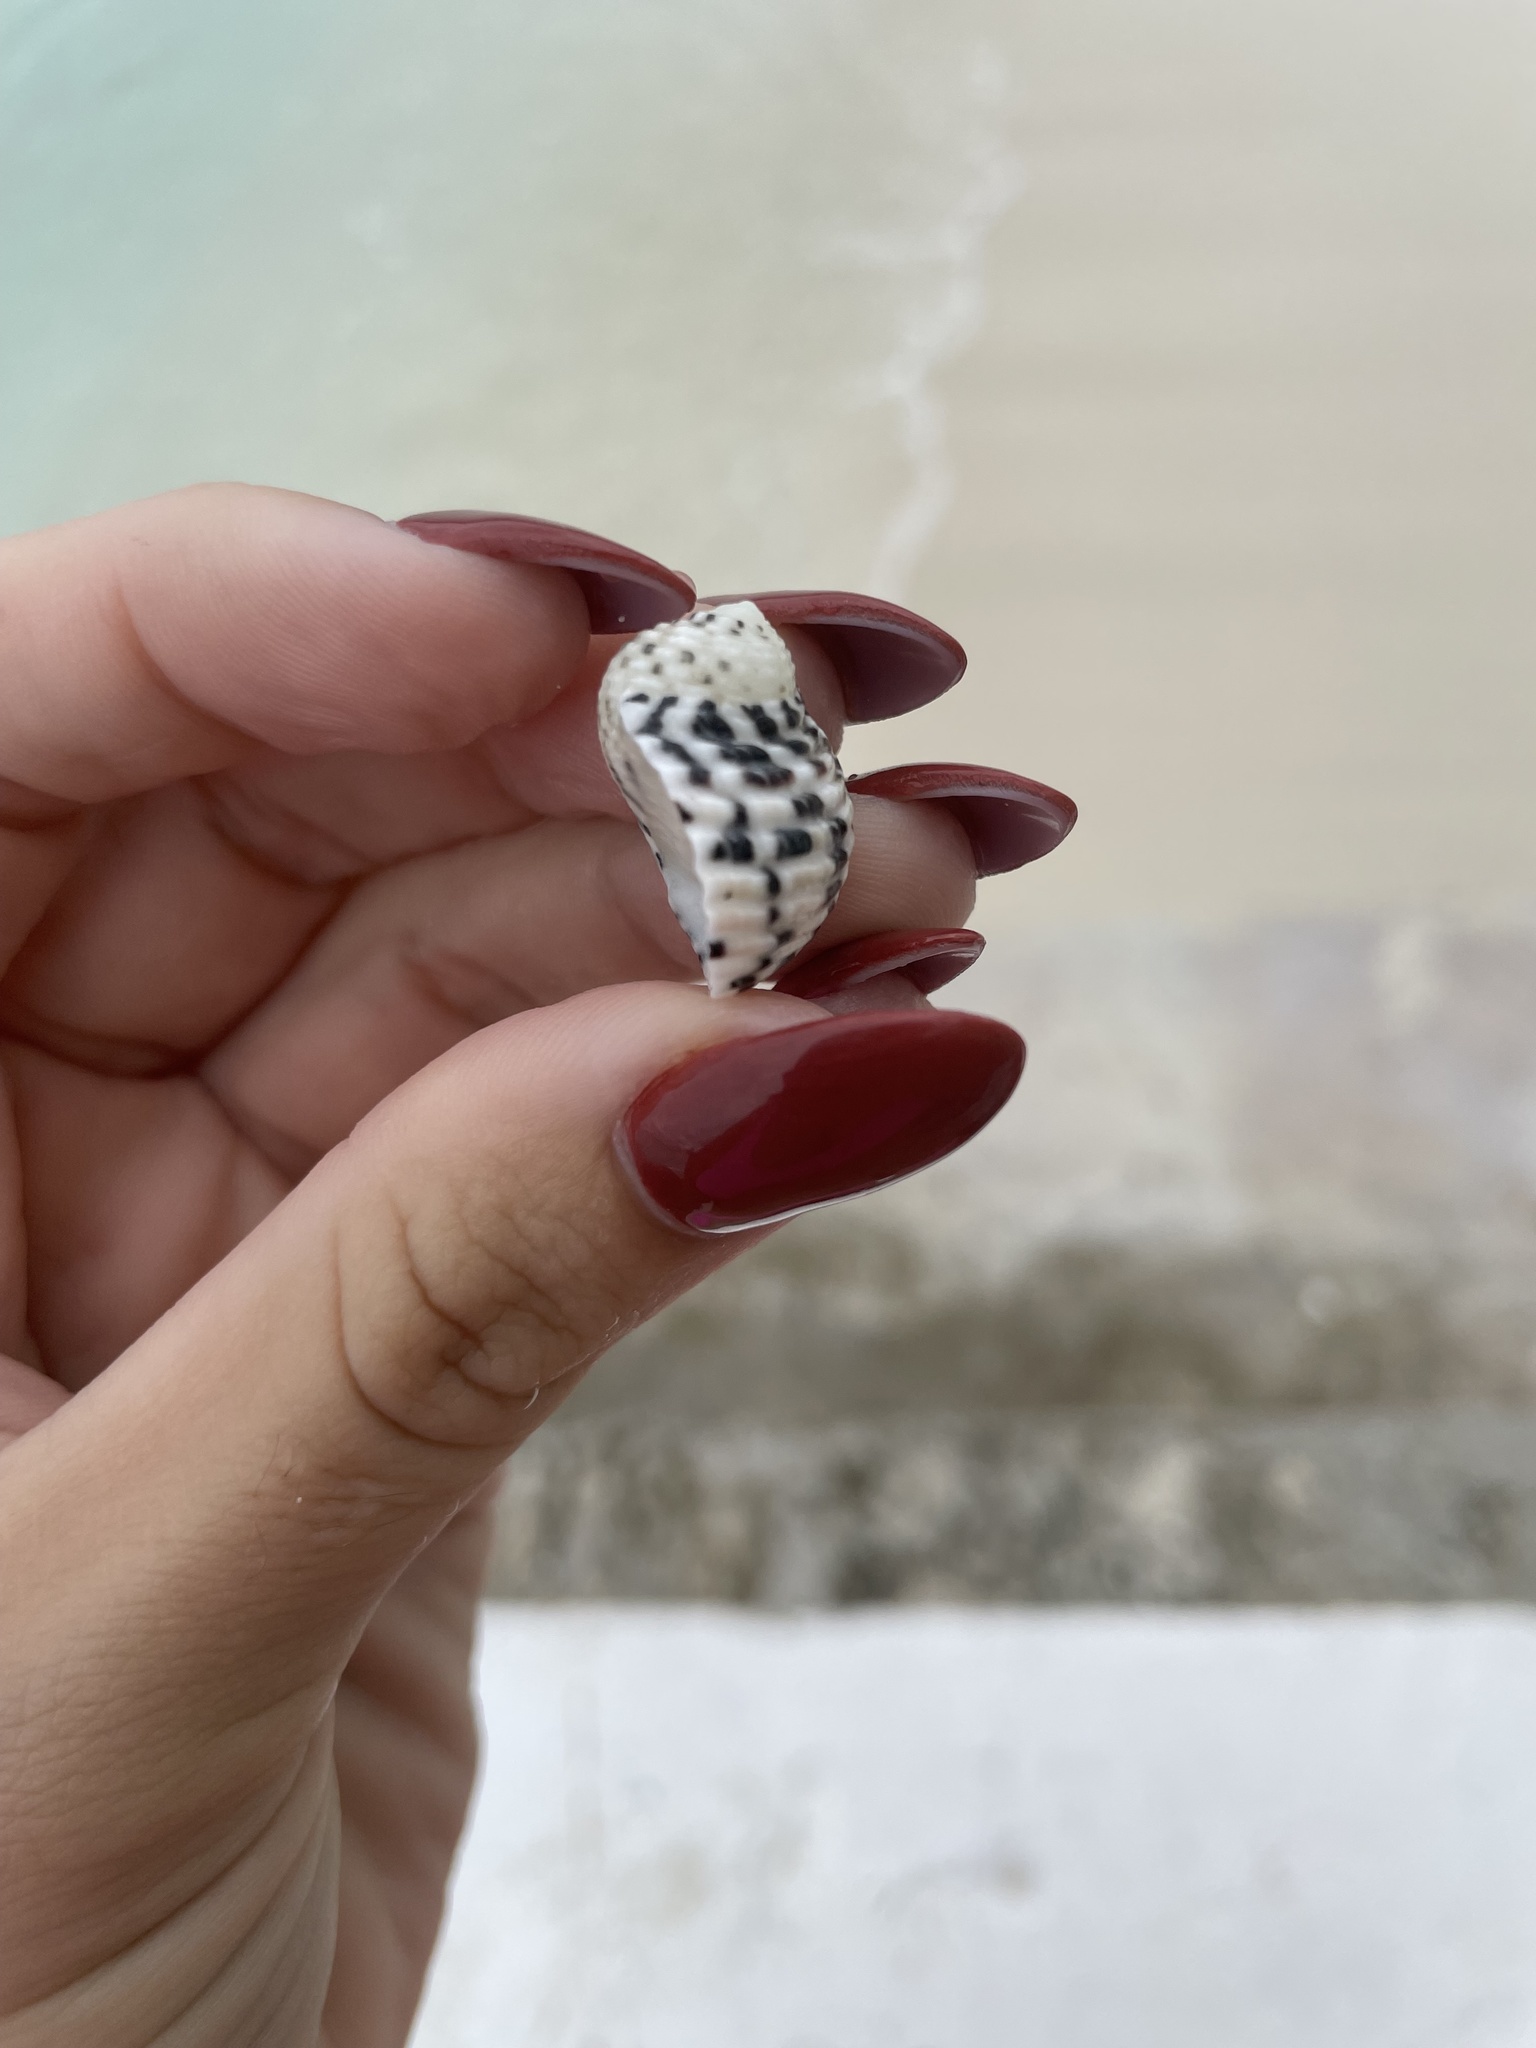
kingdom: Animalia
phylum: Mollusca
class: Gastropoda
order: Cycloneritida
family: Neritidae
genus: Nerita
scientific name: Nerita tessellata
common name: Checkered nerite
